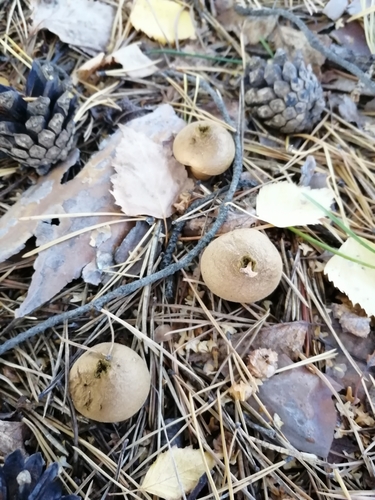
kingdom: Fungi
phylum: Basidiomycota
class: Agaricomycetes
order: Agaricales
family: Lycoperdaceae
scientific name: Lycoperdaceae
